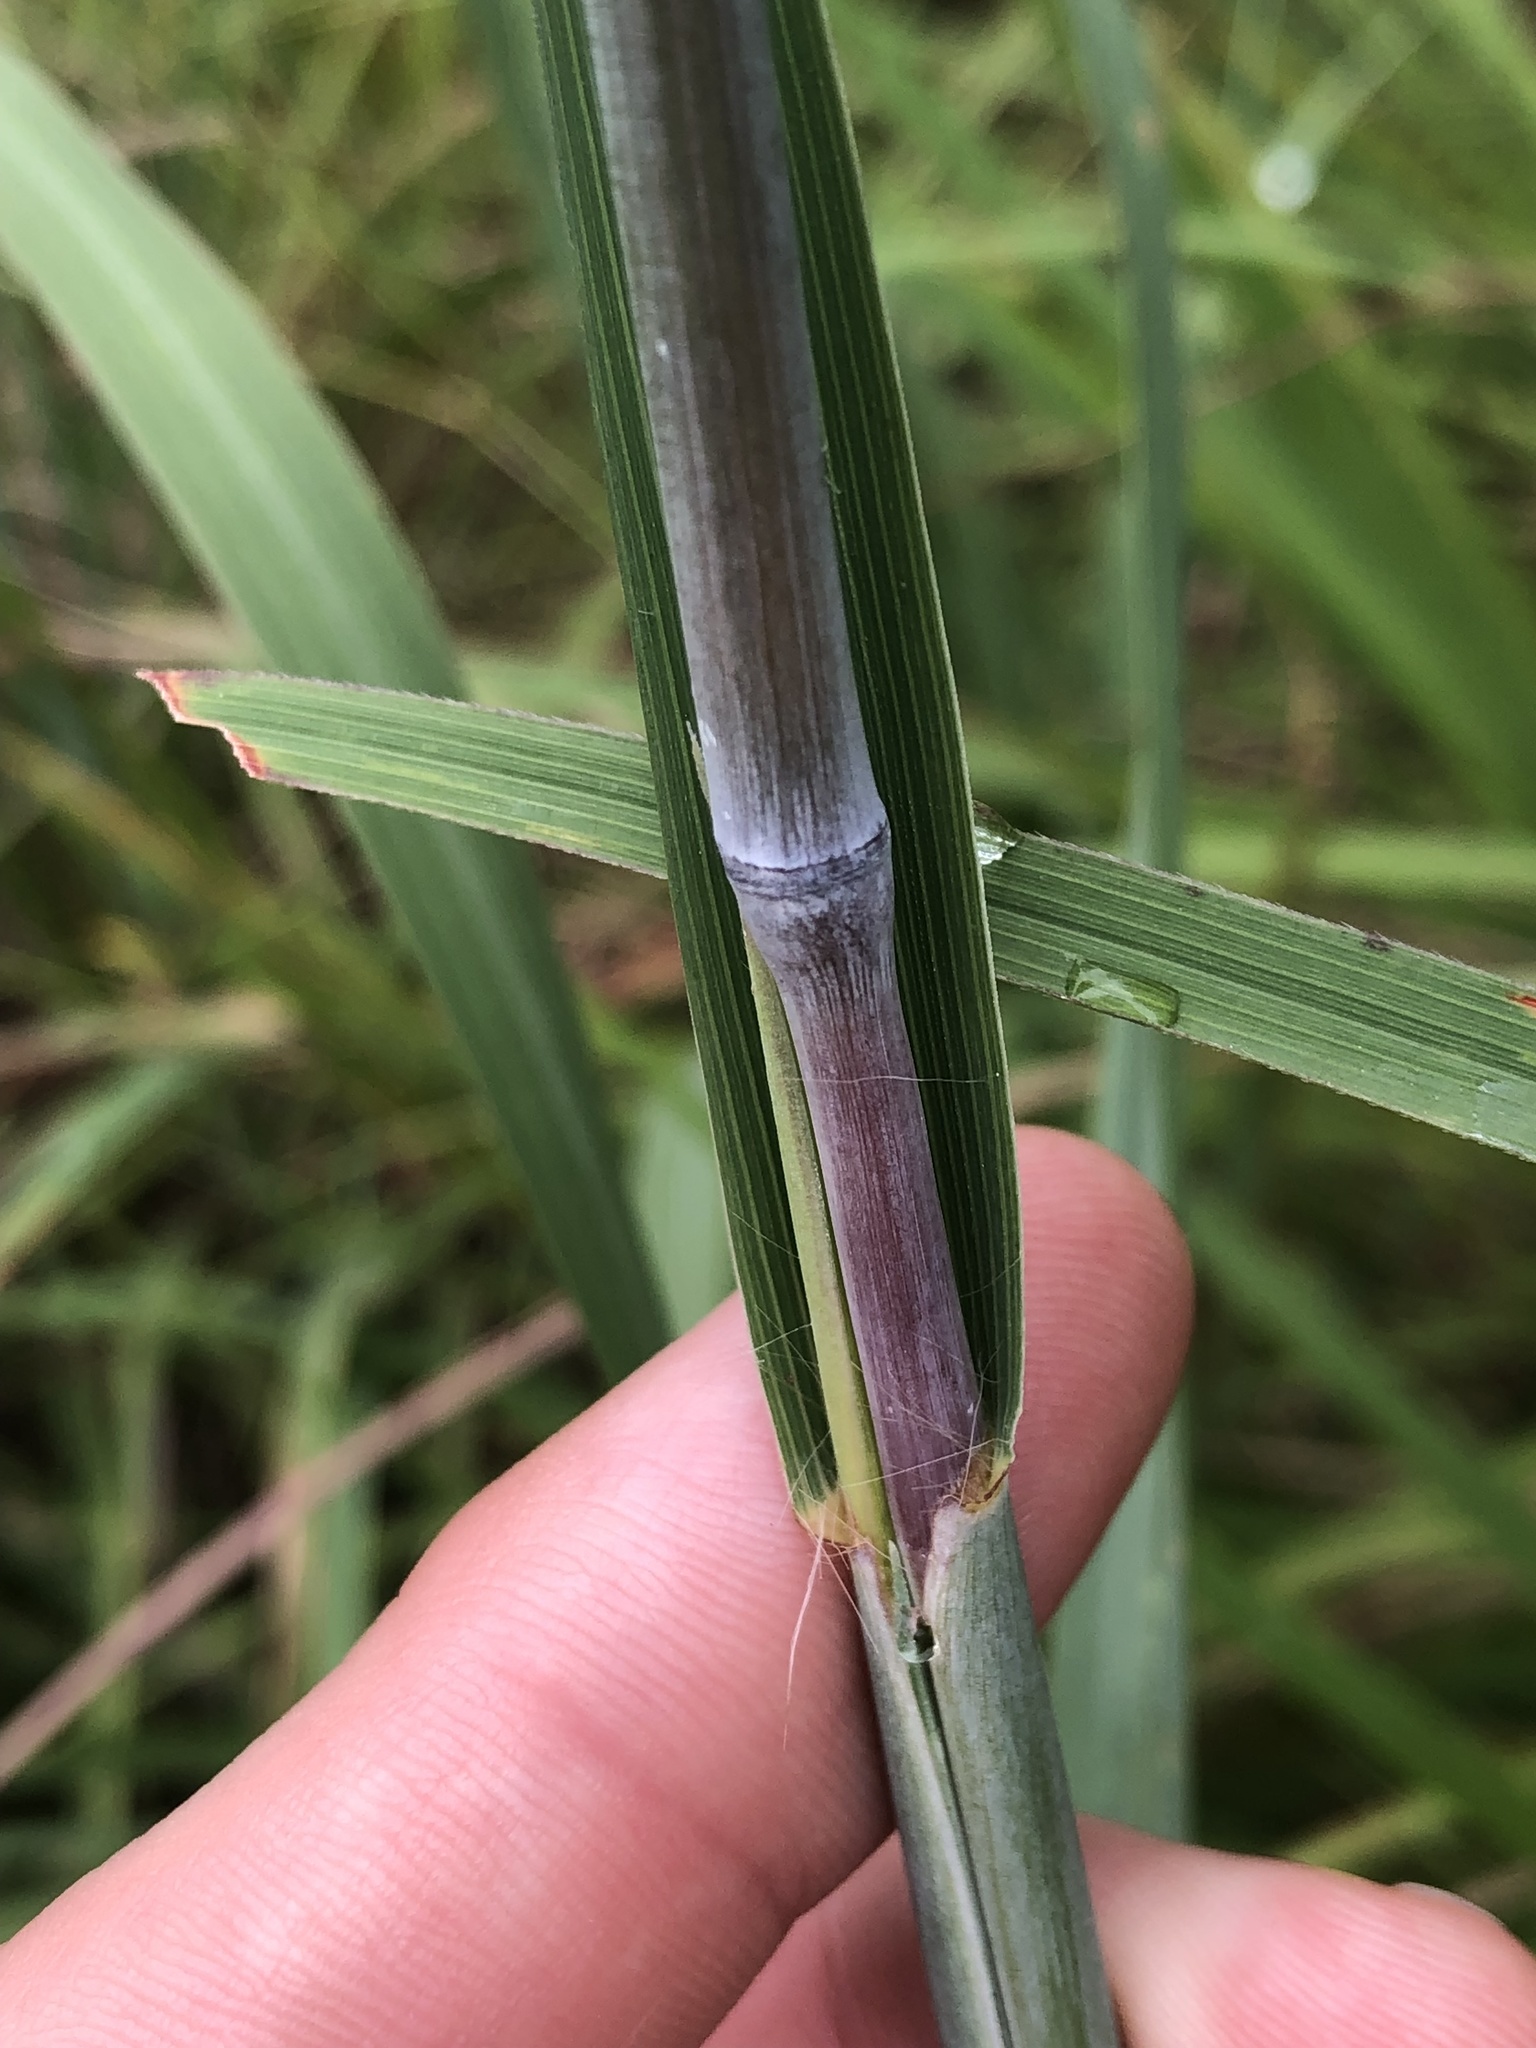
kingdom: Plantae
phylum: Tracheophyta
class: Liliopsida
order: Poales
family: Poaceae
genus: Andropogon
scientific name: Andropogon gerardi
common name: Big bluestem
